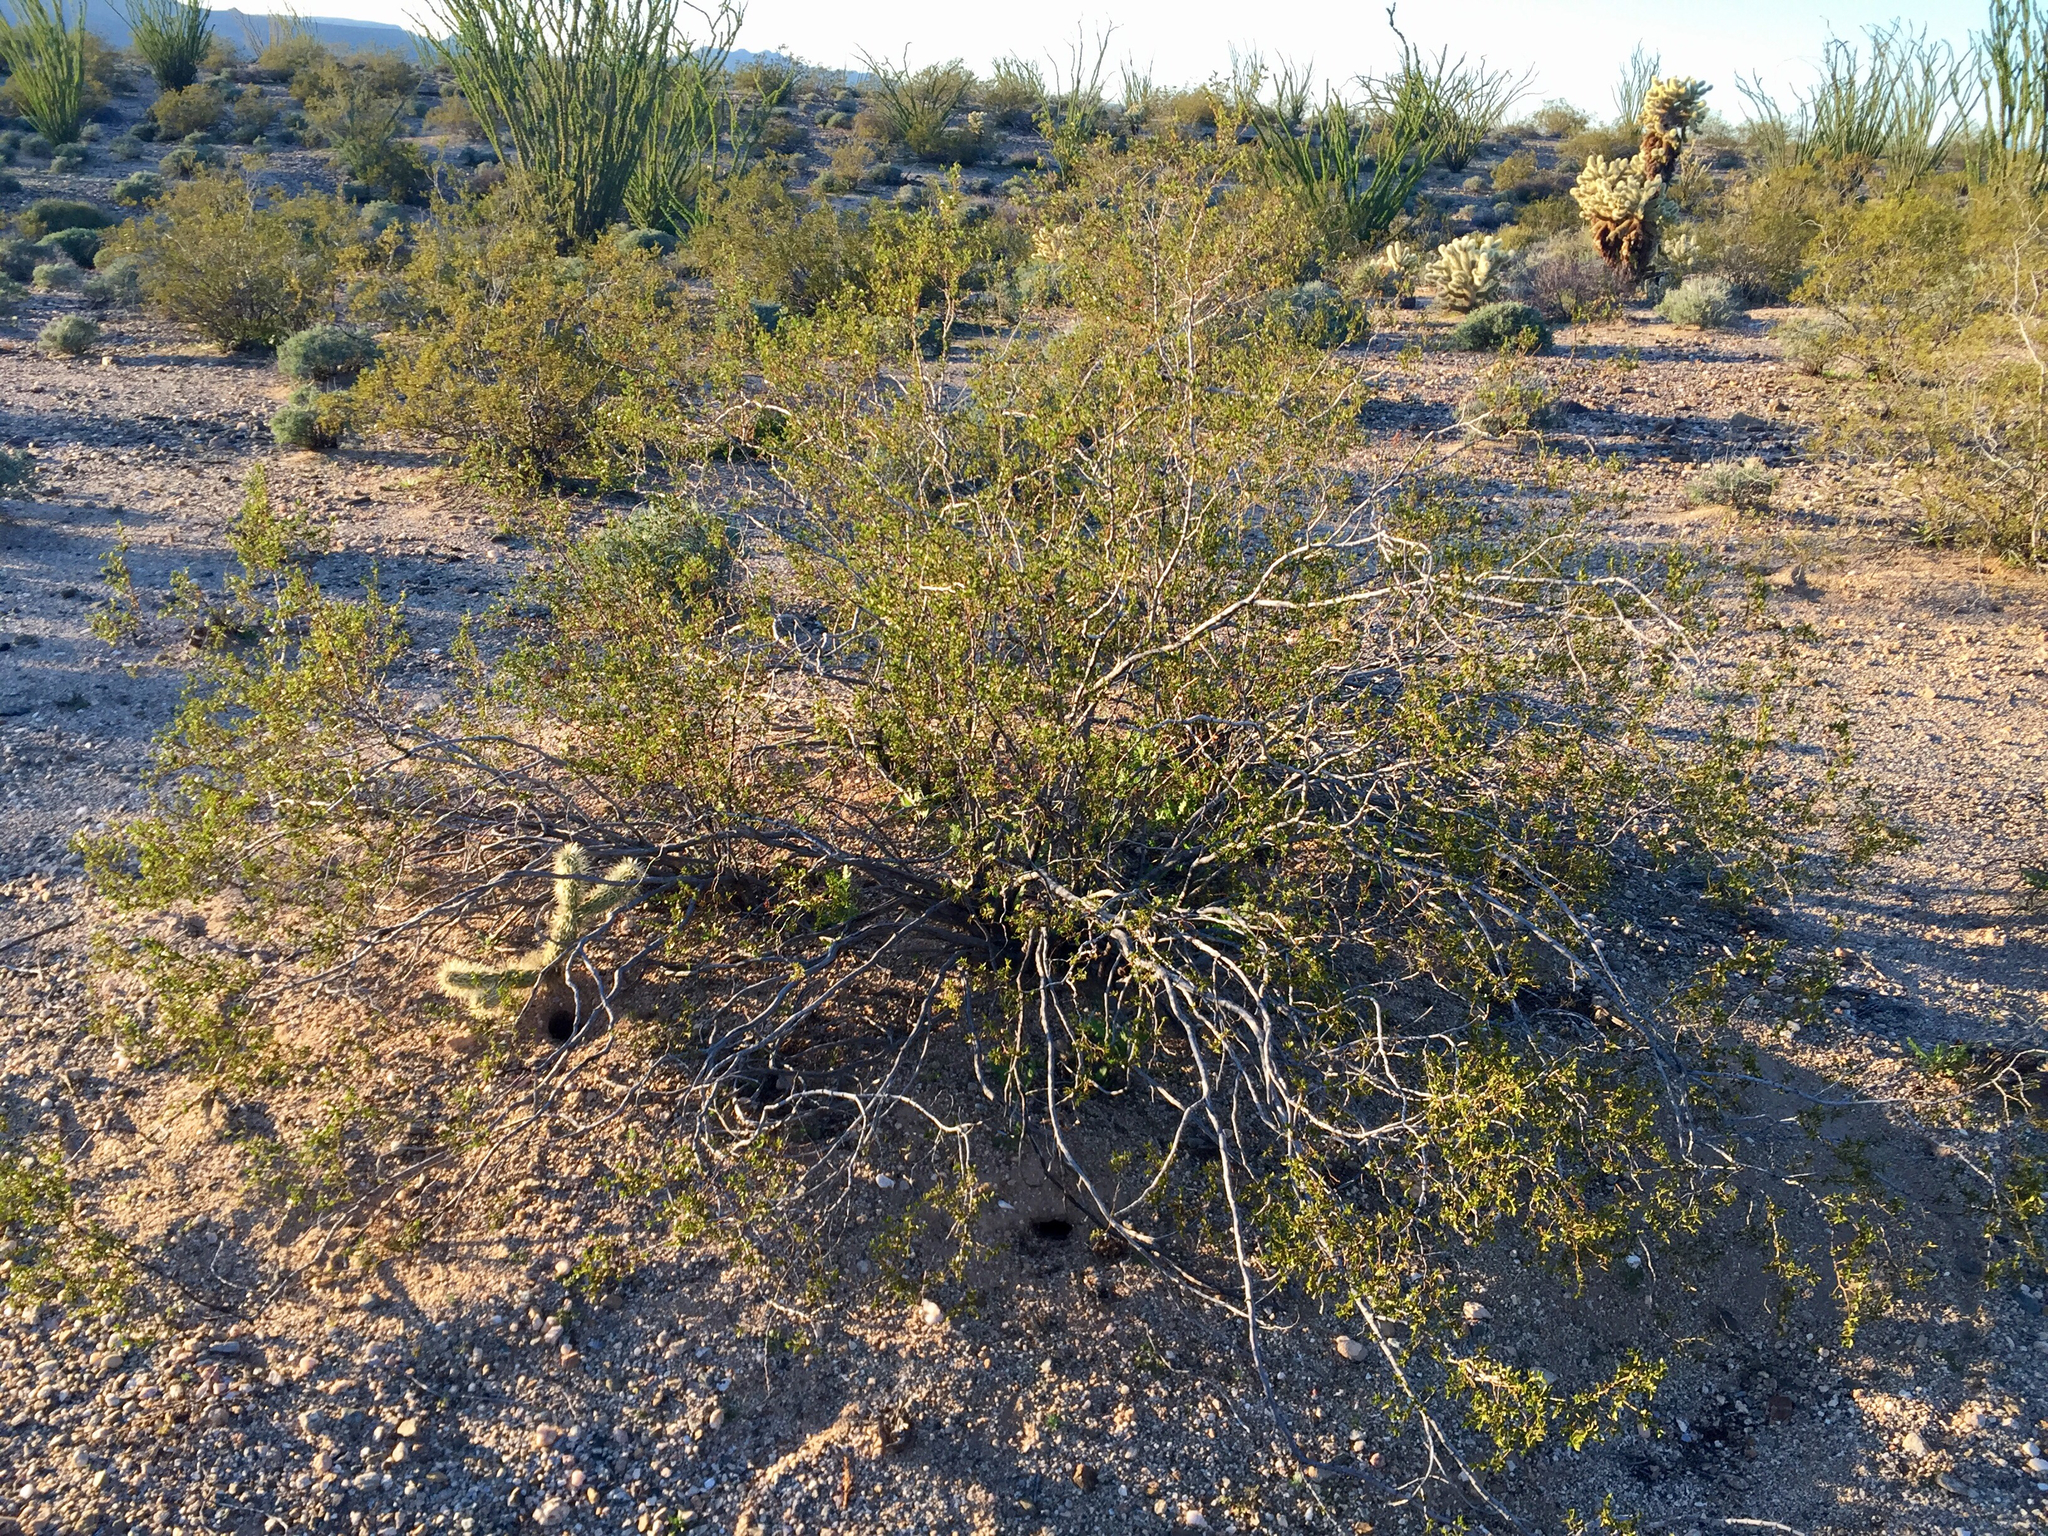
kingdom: Plantae
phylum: Tracheophyta
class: Magnoliopsida
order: Zygophyllales
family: Zygophyllaceae
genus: Larrea
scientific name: Larrea tridentata
